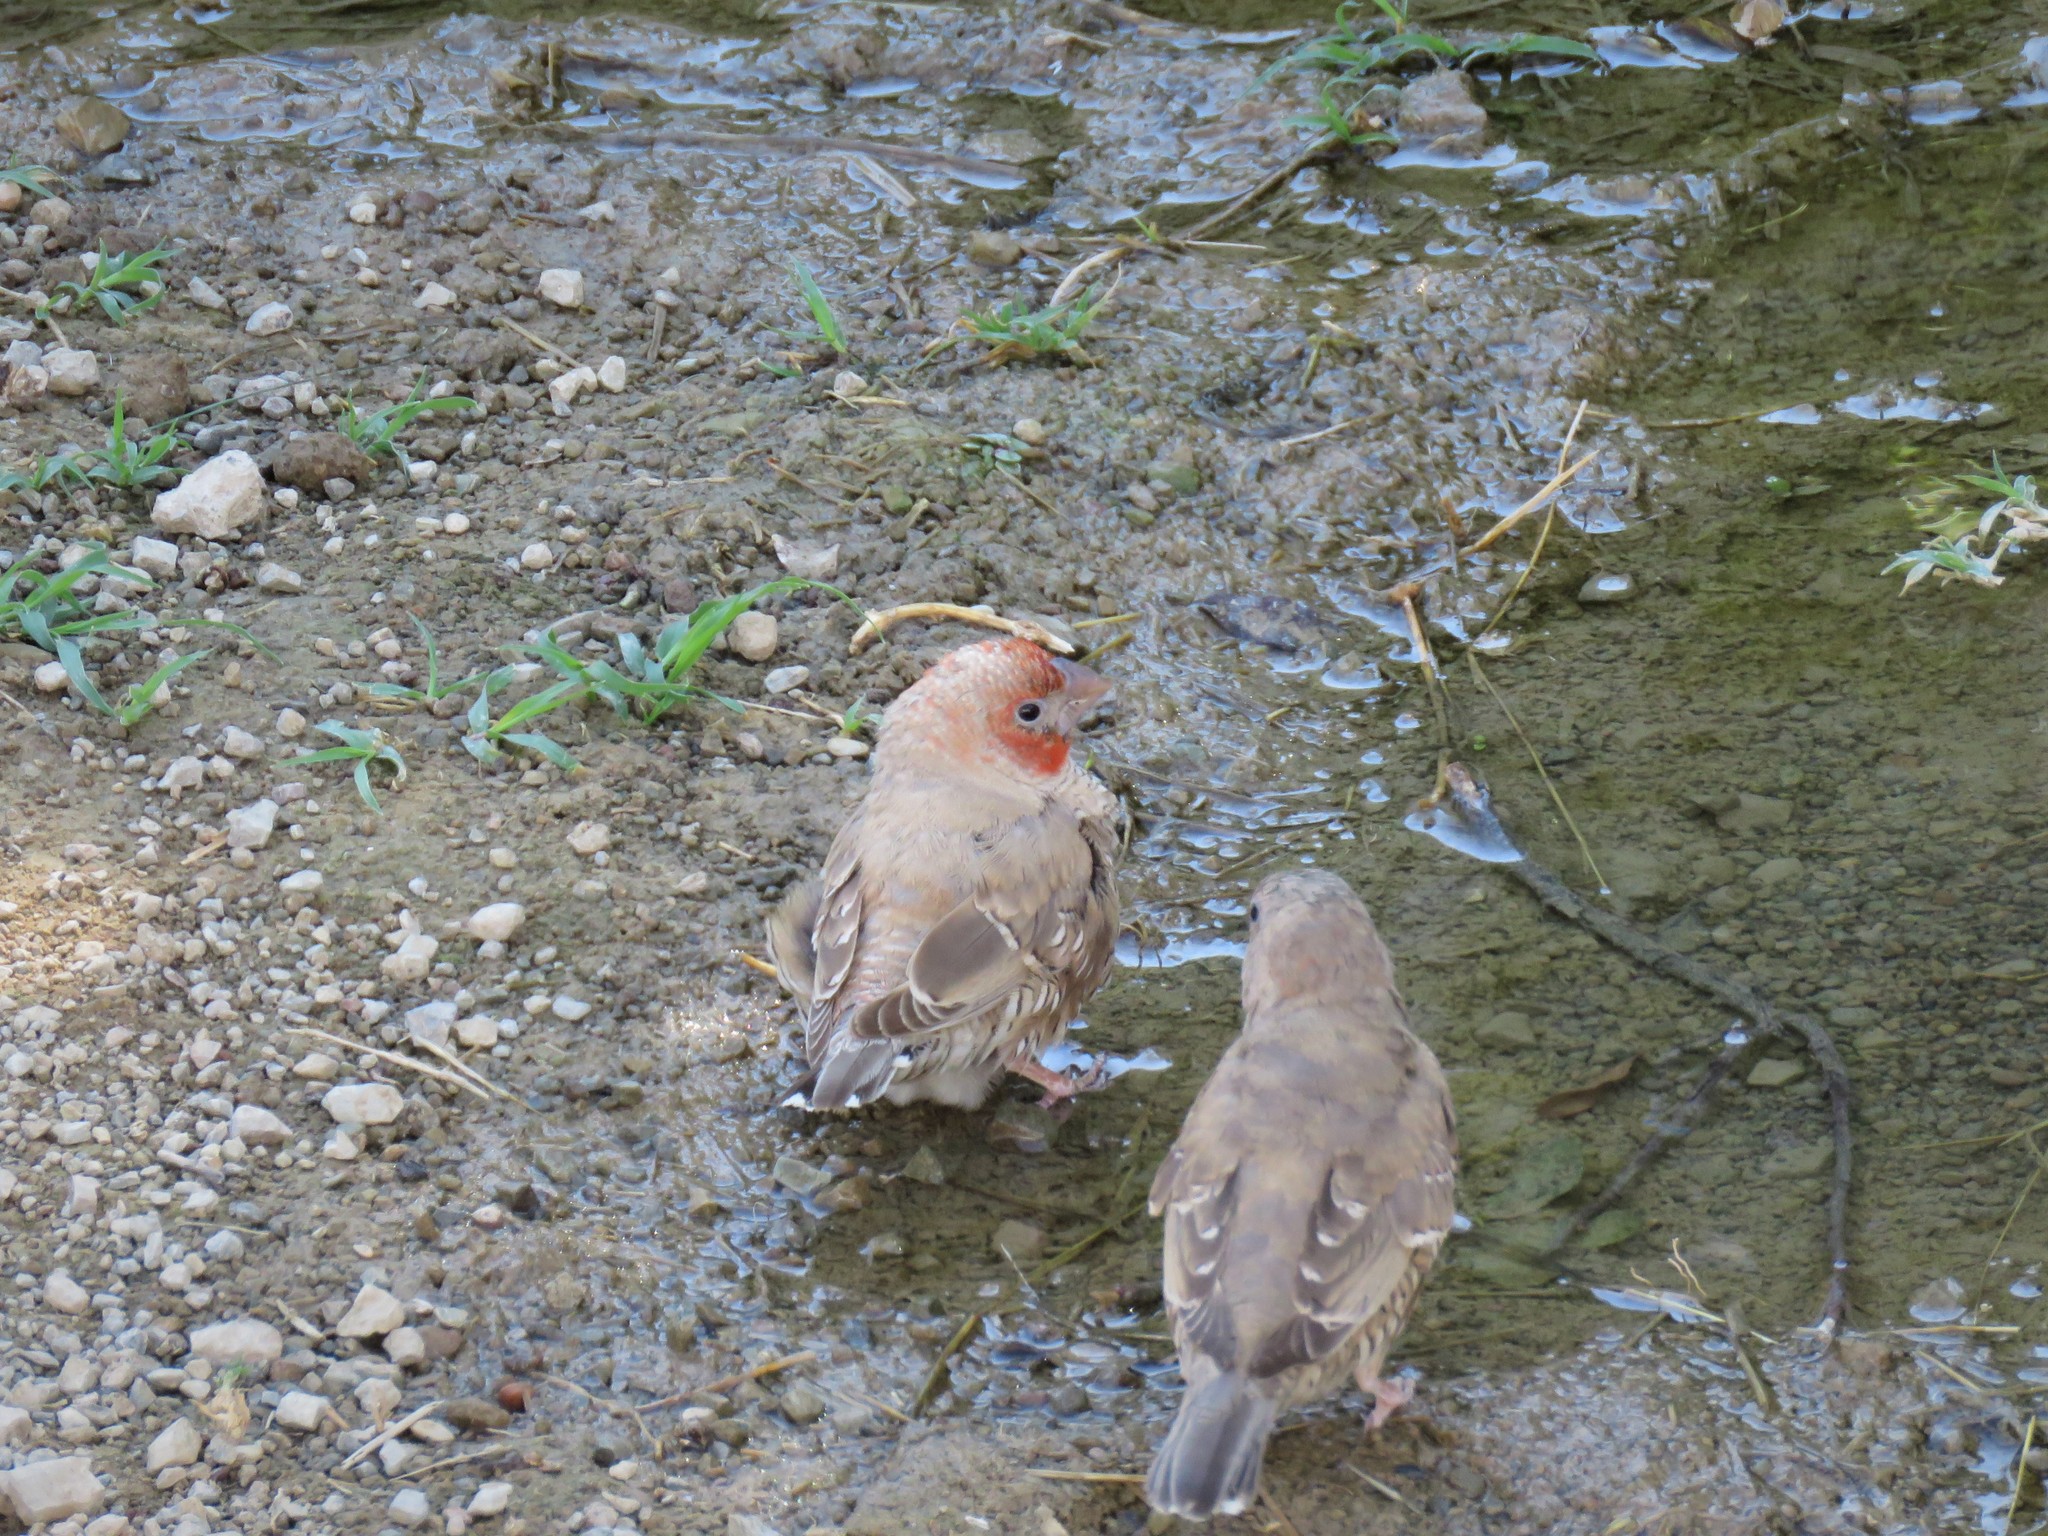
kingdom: Animalia
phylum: Chordata
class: Aves
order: Passeriformes
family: Estrildidae
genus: Amadina
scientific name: Amadina erythrocephala
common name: Red-headed finch
